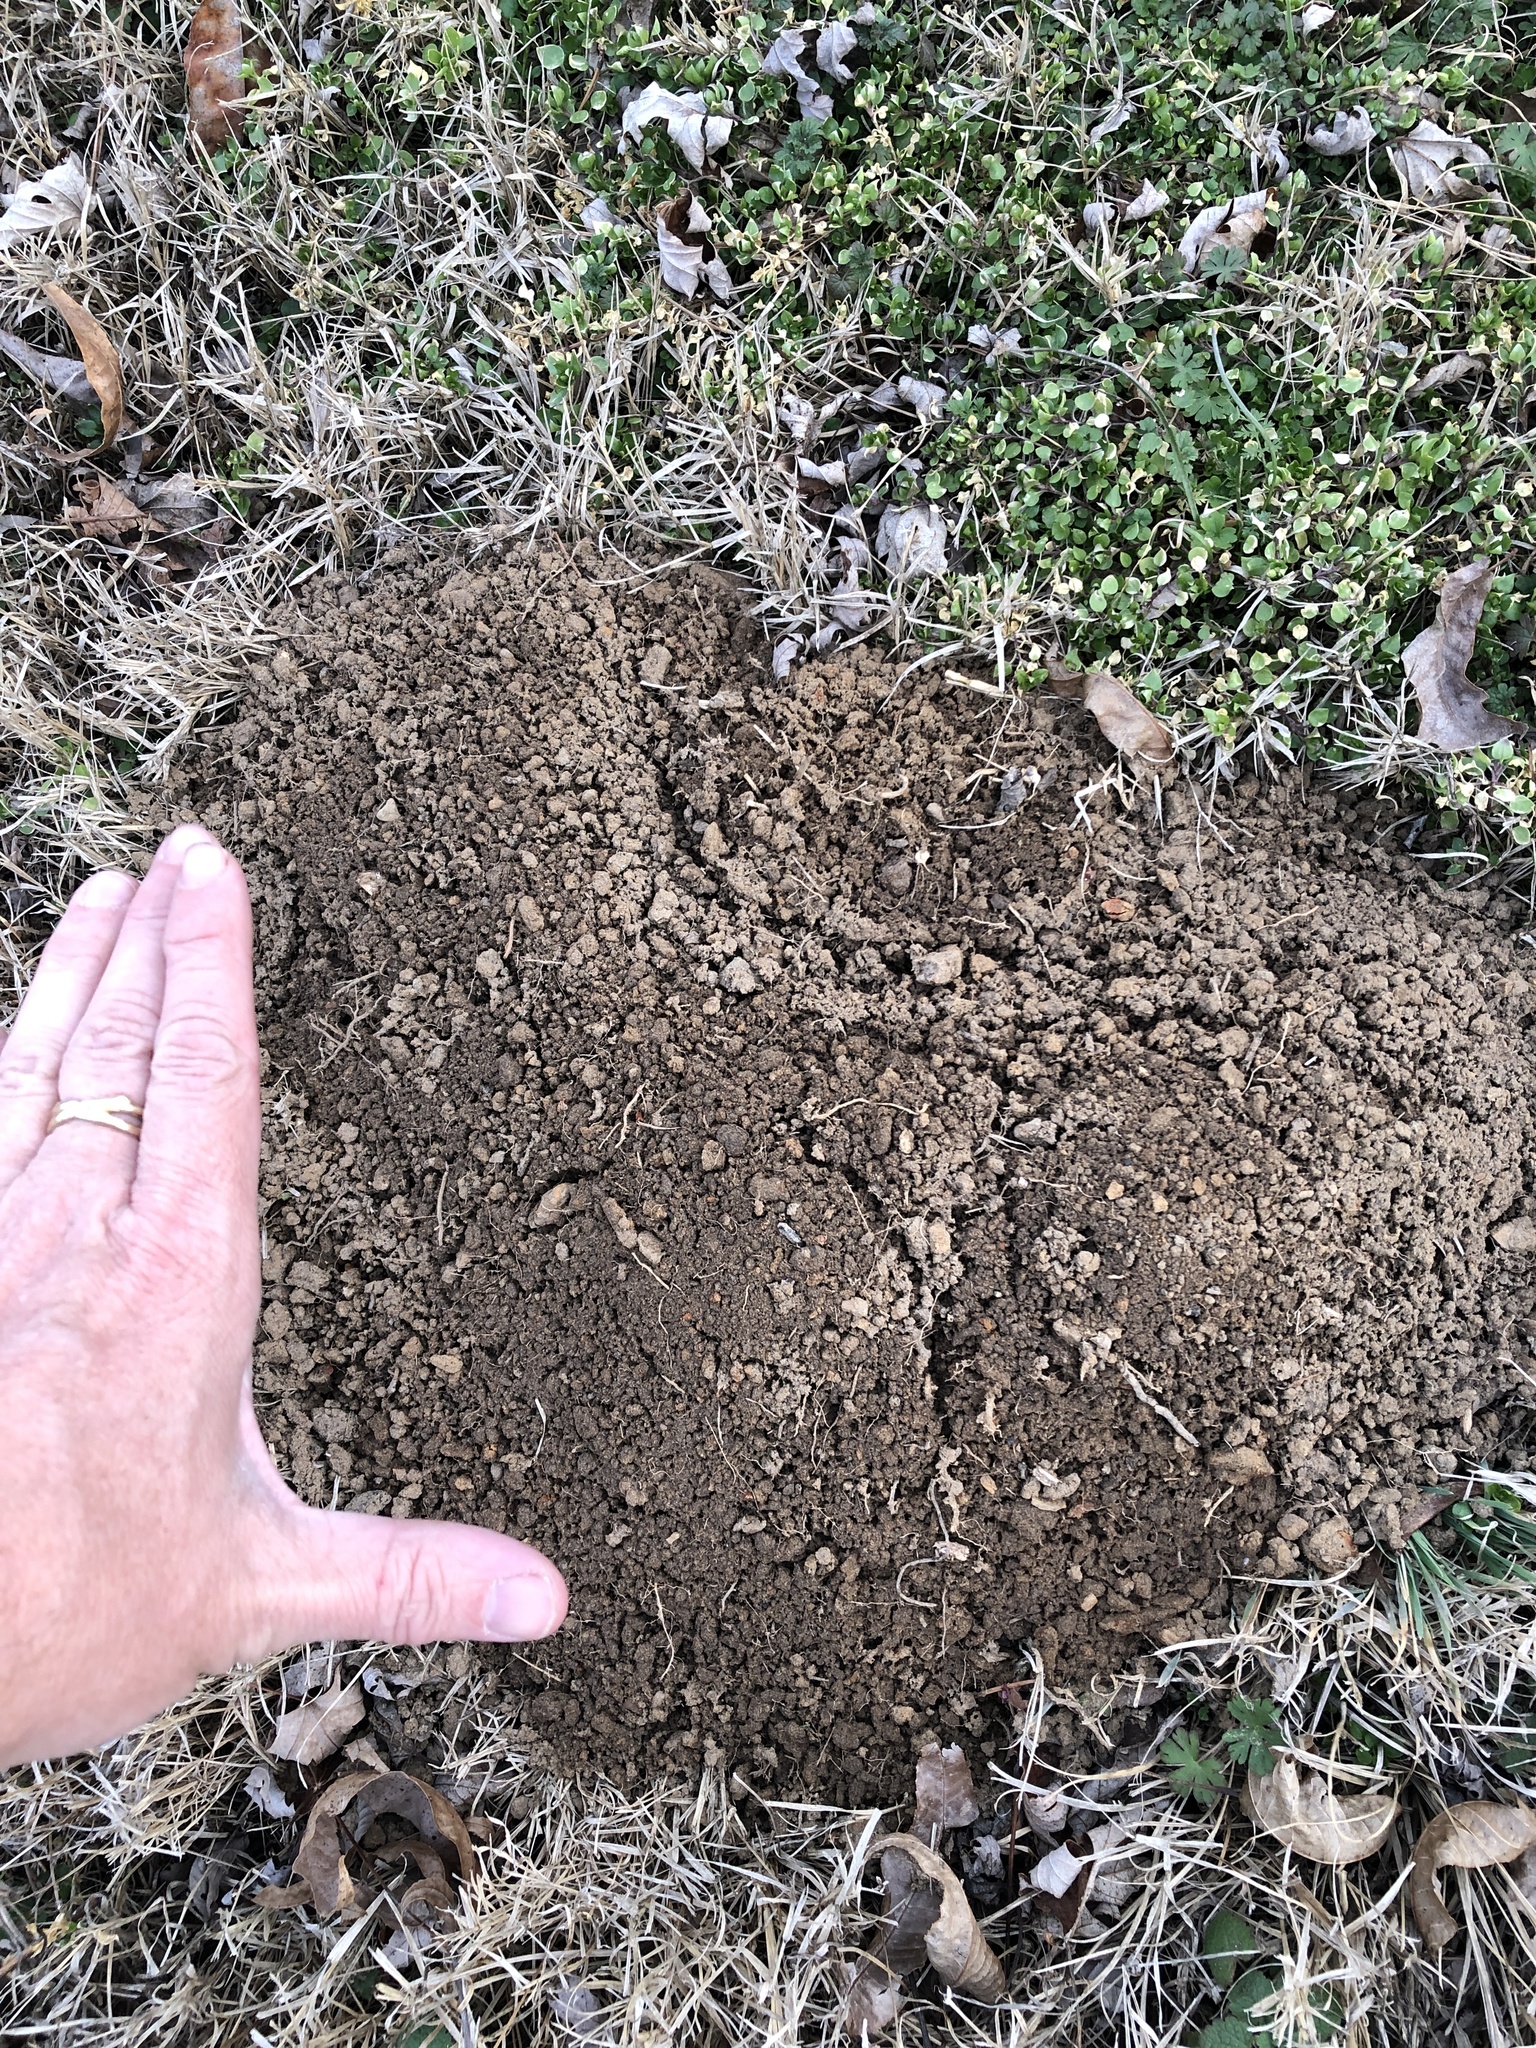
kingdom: Animalia
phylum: Chordata
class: Mammalia
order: Rodentia
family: Geomyidae
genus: Geomys
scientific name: Geomys breviceps
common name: Baird's pocket gopher
